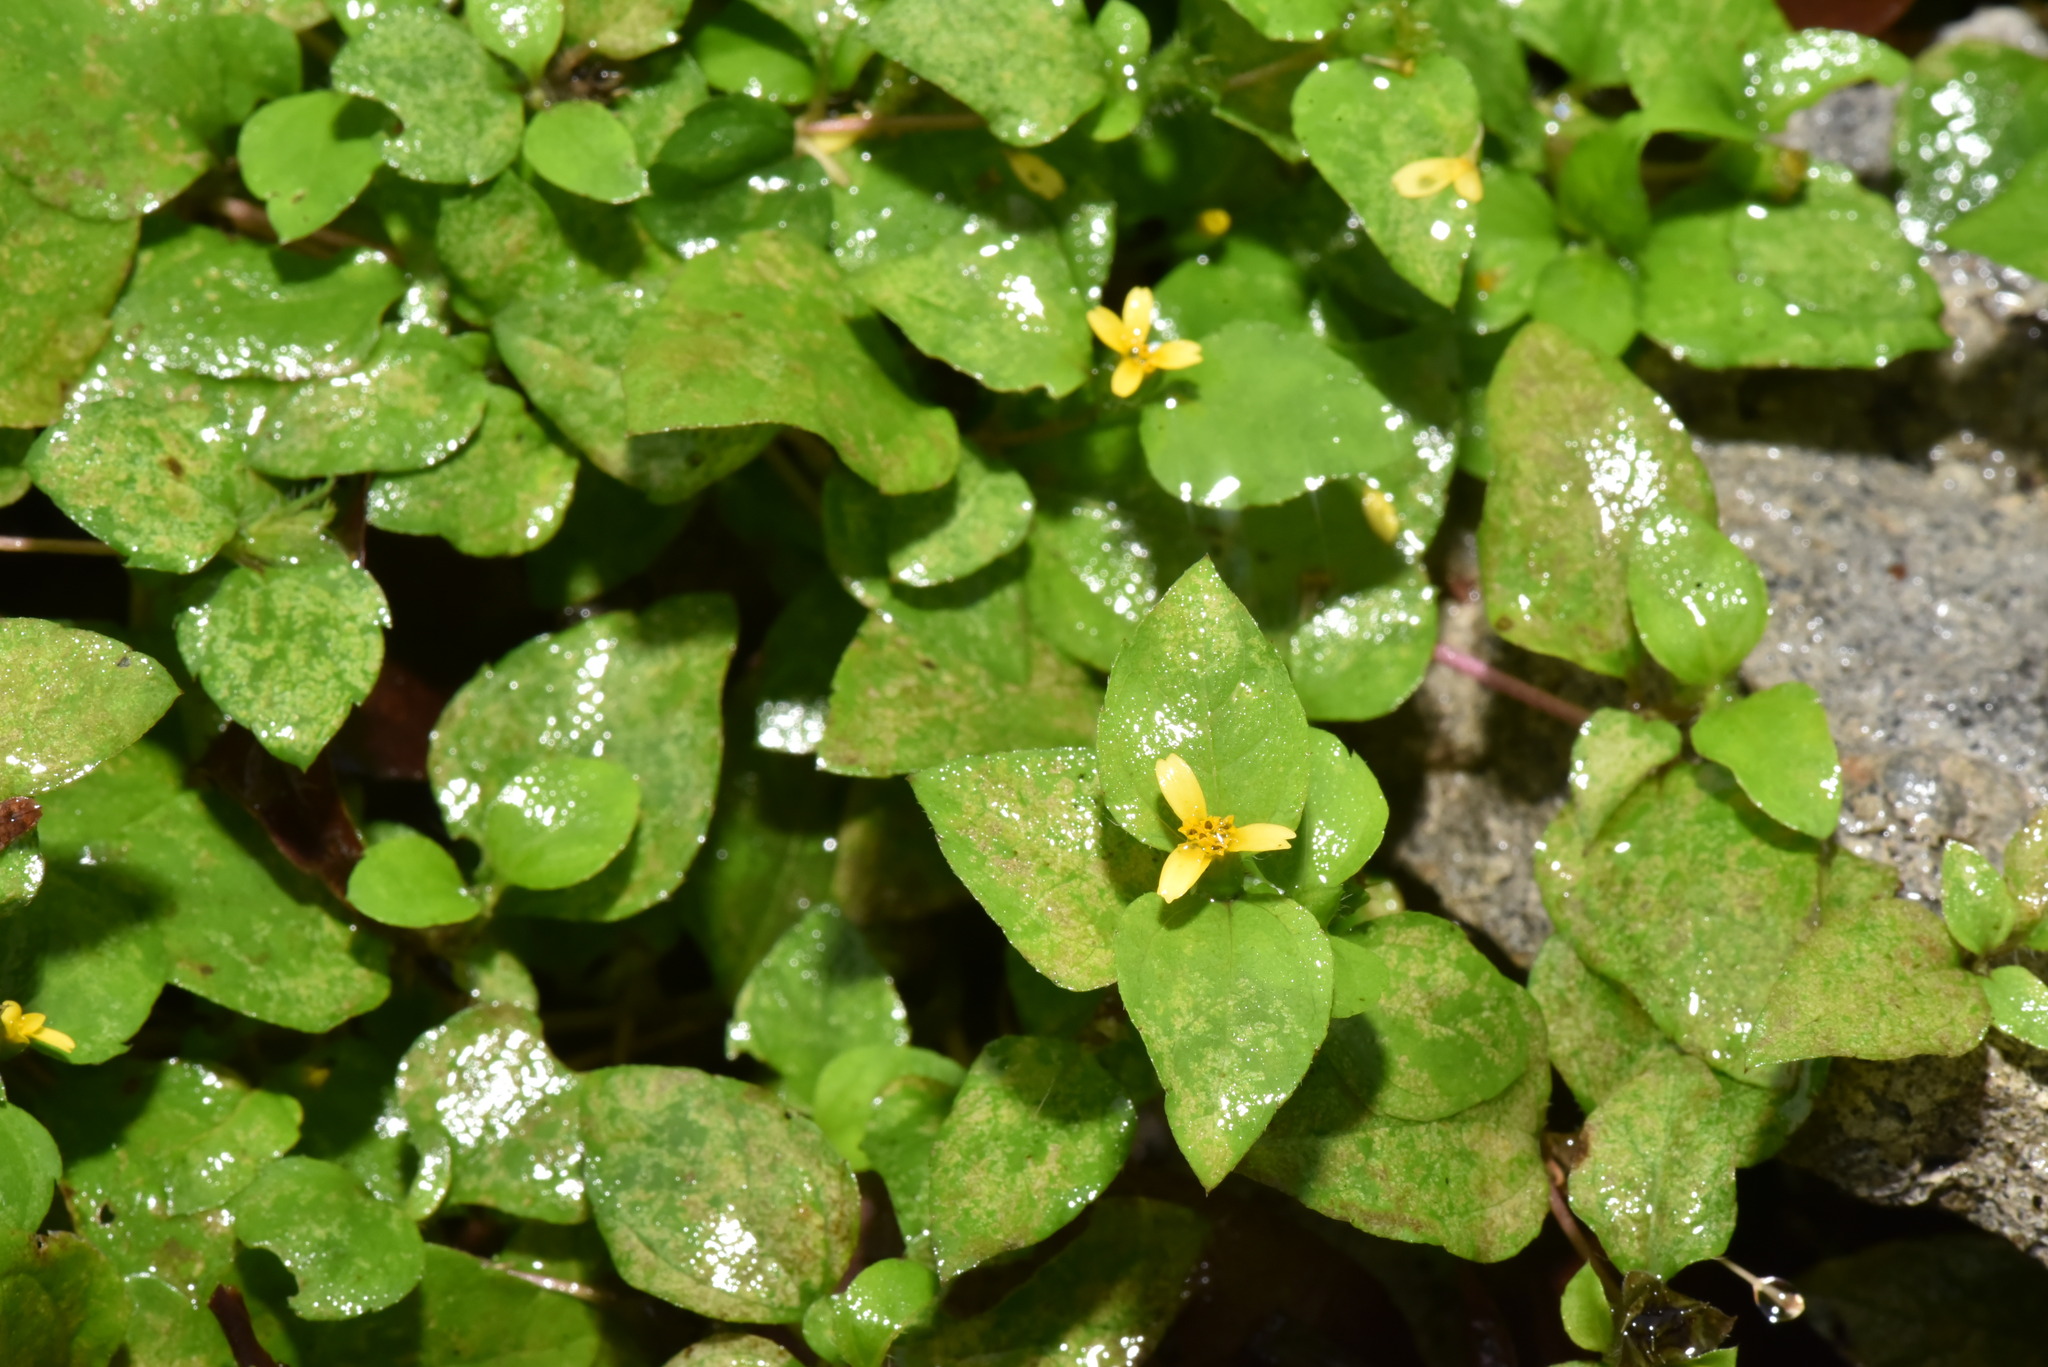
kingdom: Plantae
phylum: Tracheophyta
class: Magnoliopsida
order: Asterales
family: Asteraceae
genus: Calyptocarpus
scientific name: Calyptocarpus vialis
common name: Straggler daisy
